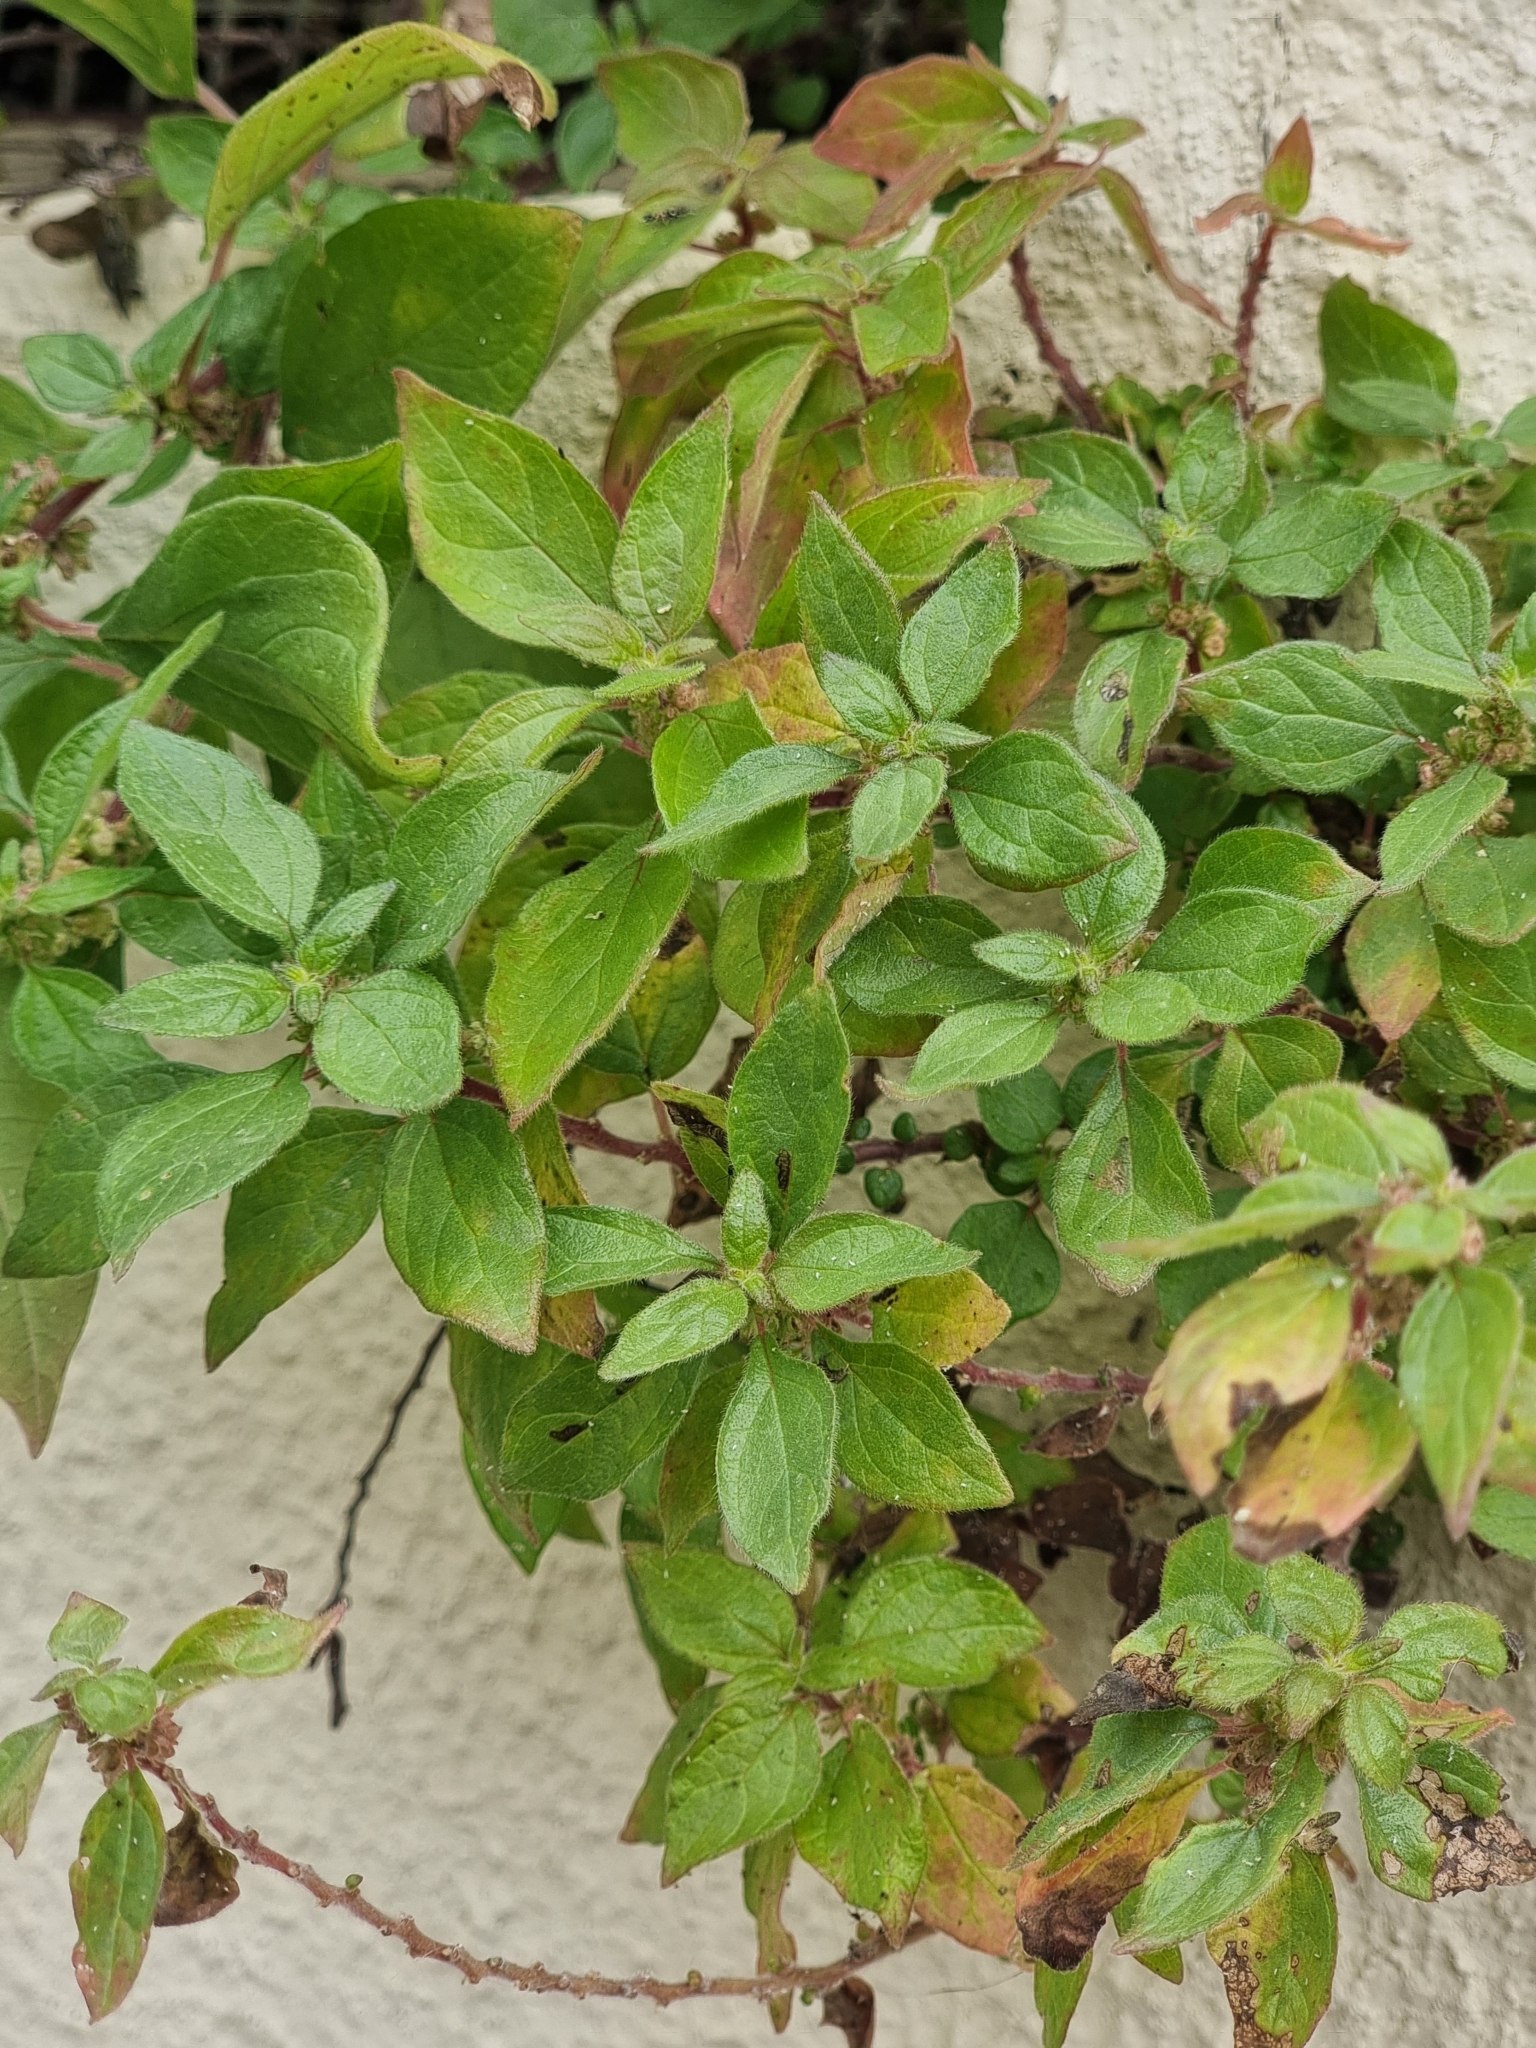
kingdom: Plantae
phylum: Tracheophyta
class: Magnoliopsida
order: Rosales
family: Urticaceae
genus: Parietaria
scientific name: Parietaria judaica
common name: Pellitory-of-the-wall
